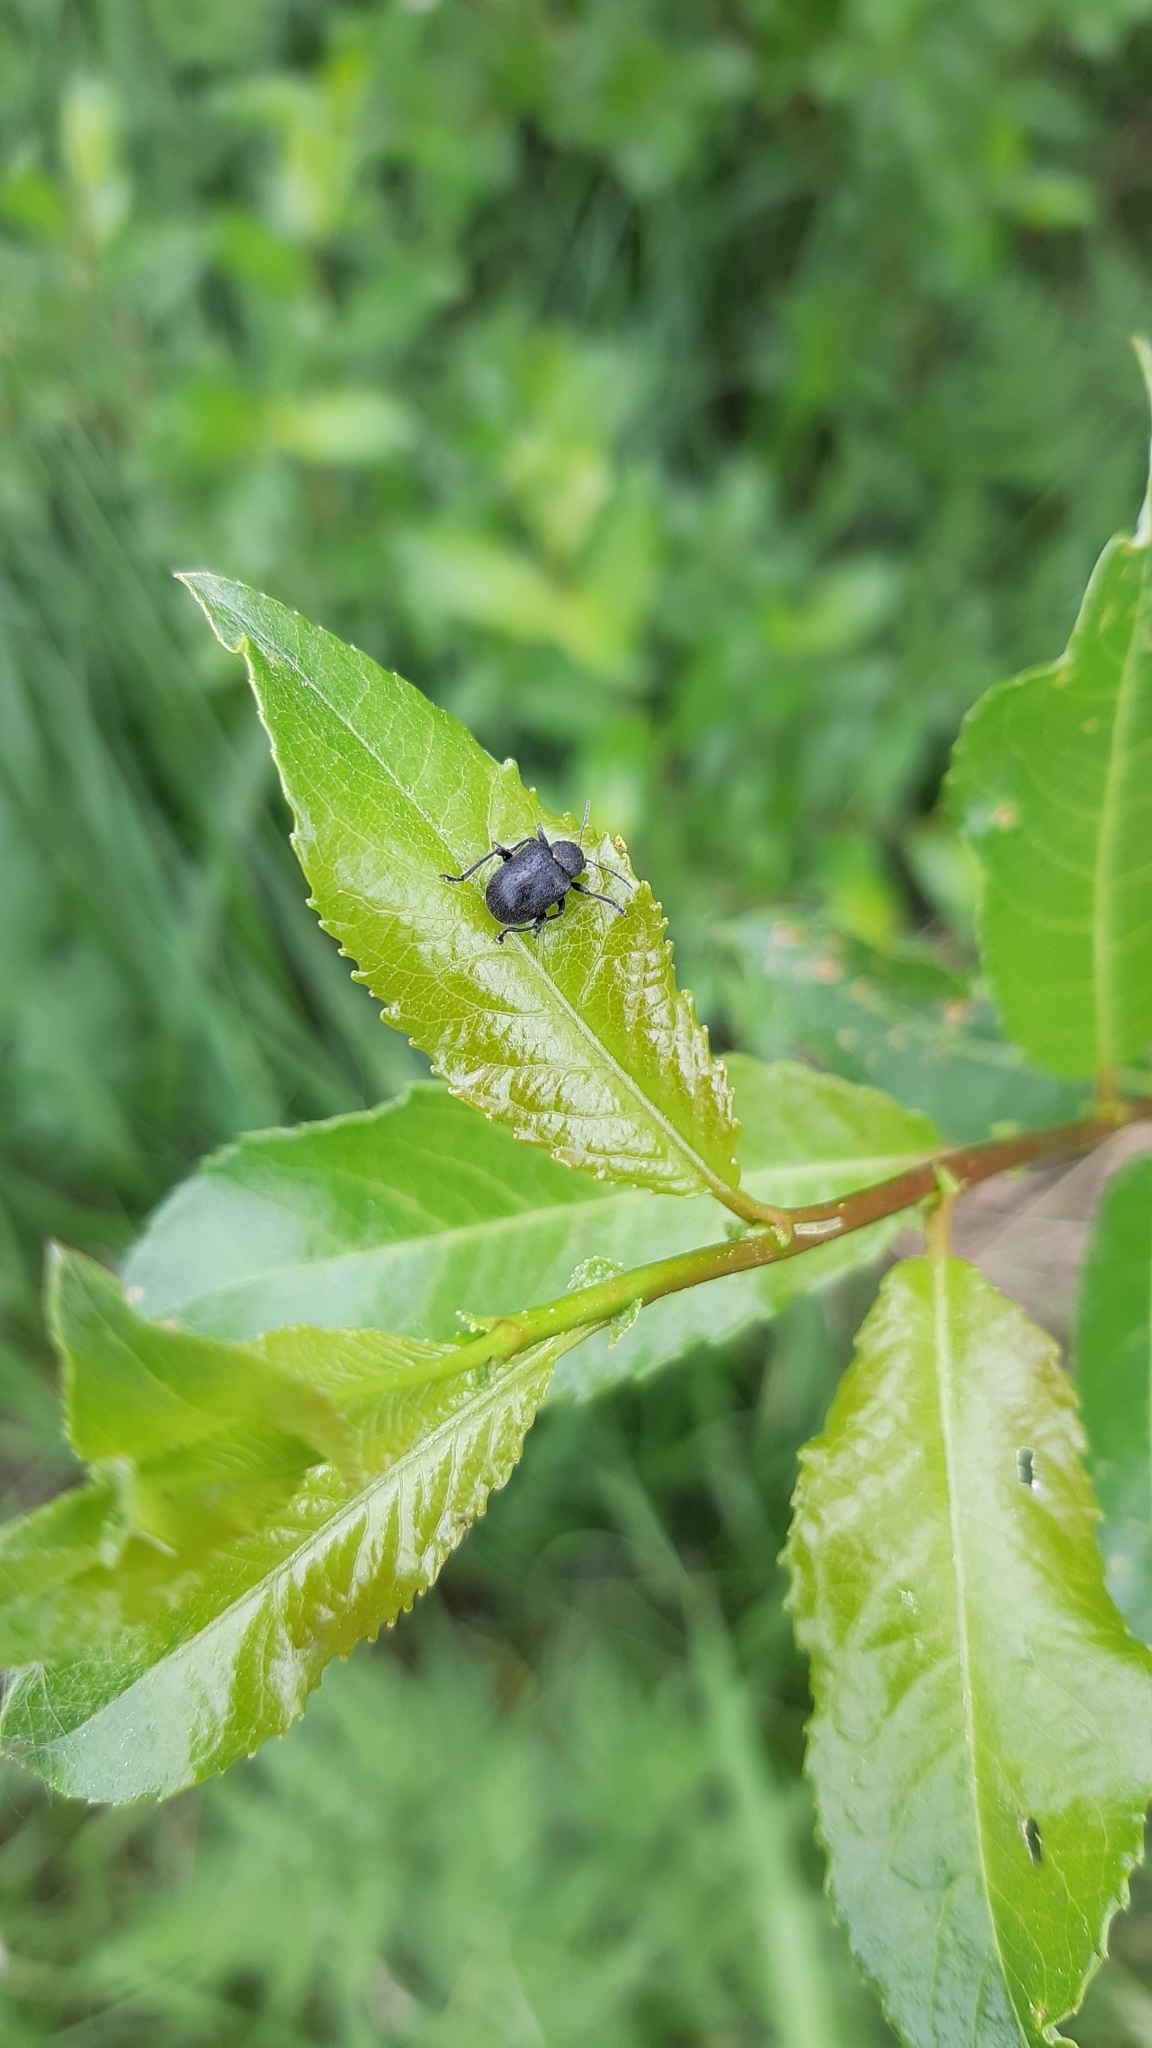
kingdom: Animalia
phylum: Arthropoda
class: Insecta
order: Coleoptera
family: Chrysomelidae
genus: Bromius
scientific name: Bromius obscurus
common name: Western grape rootworm
